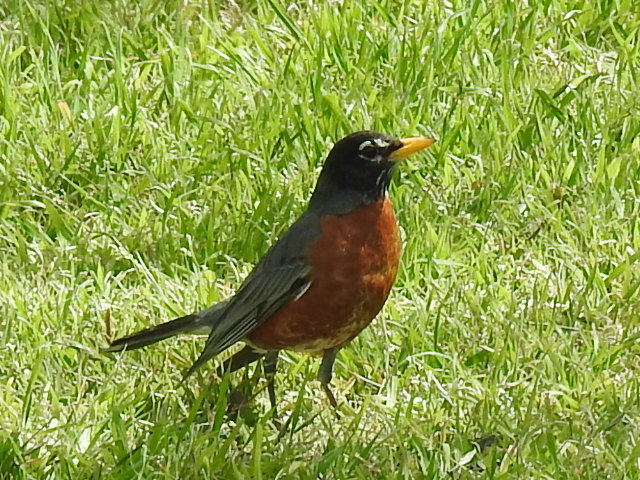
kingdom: Animalia
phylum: Chordata
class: Aves
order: Passeriformes
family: Turdidae
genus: Turdus
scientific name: Turdus migratorius
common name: American robin
